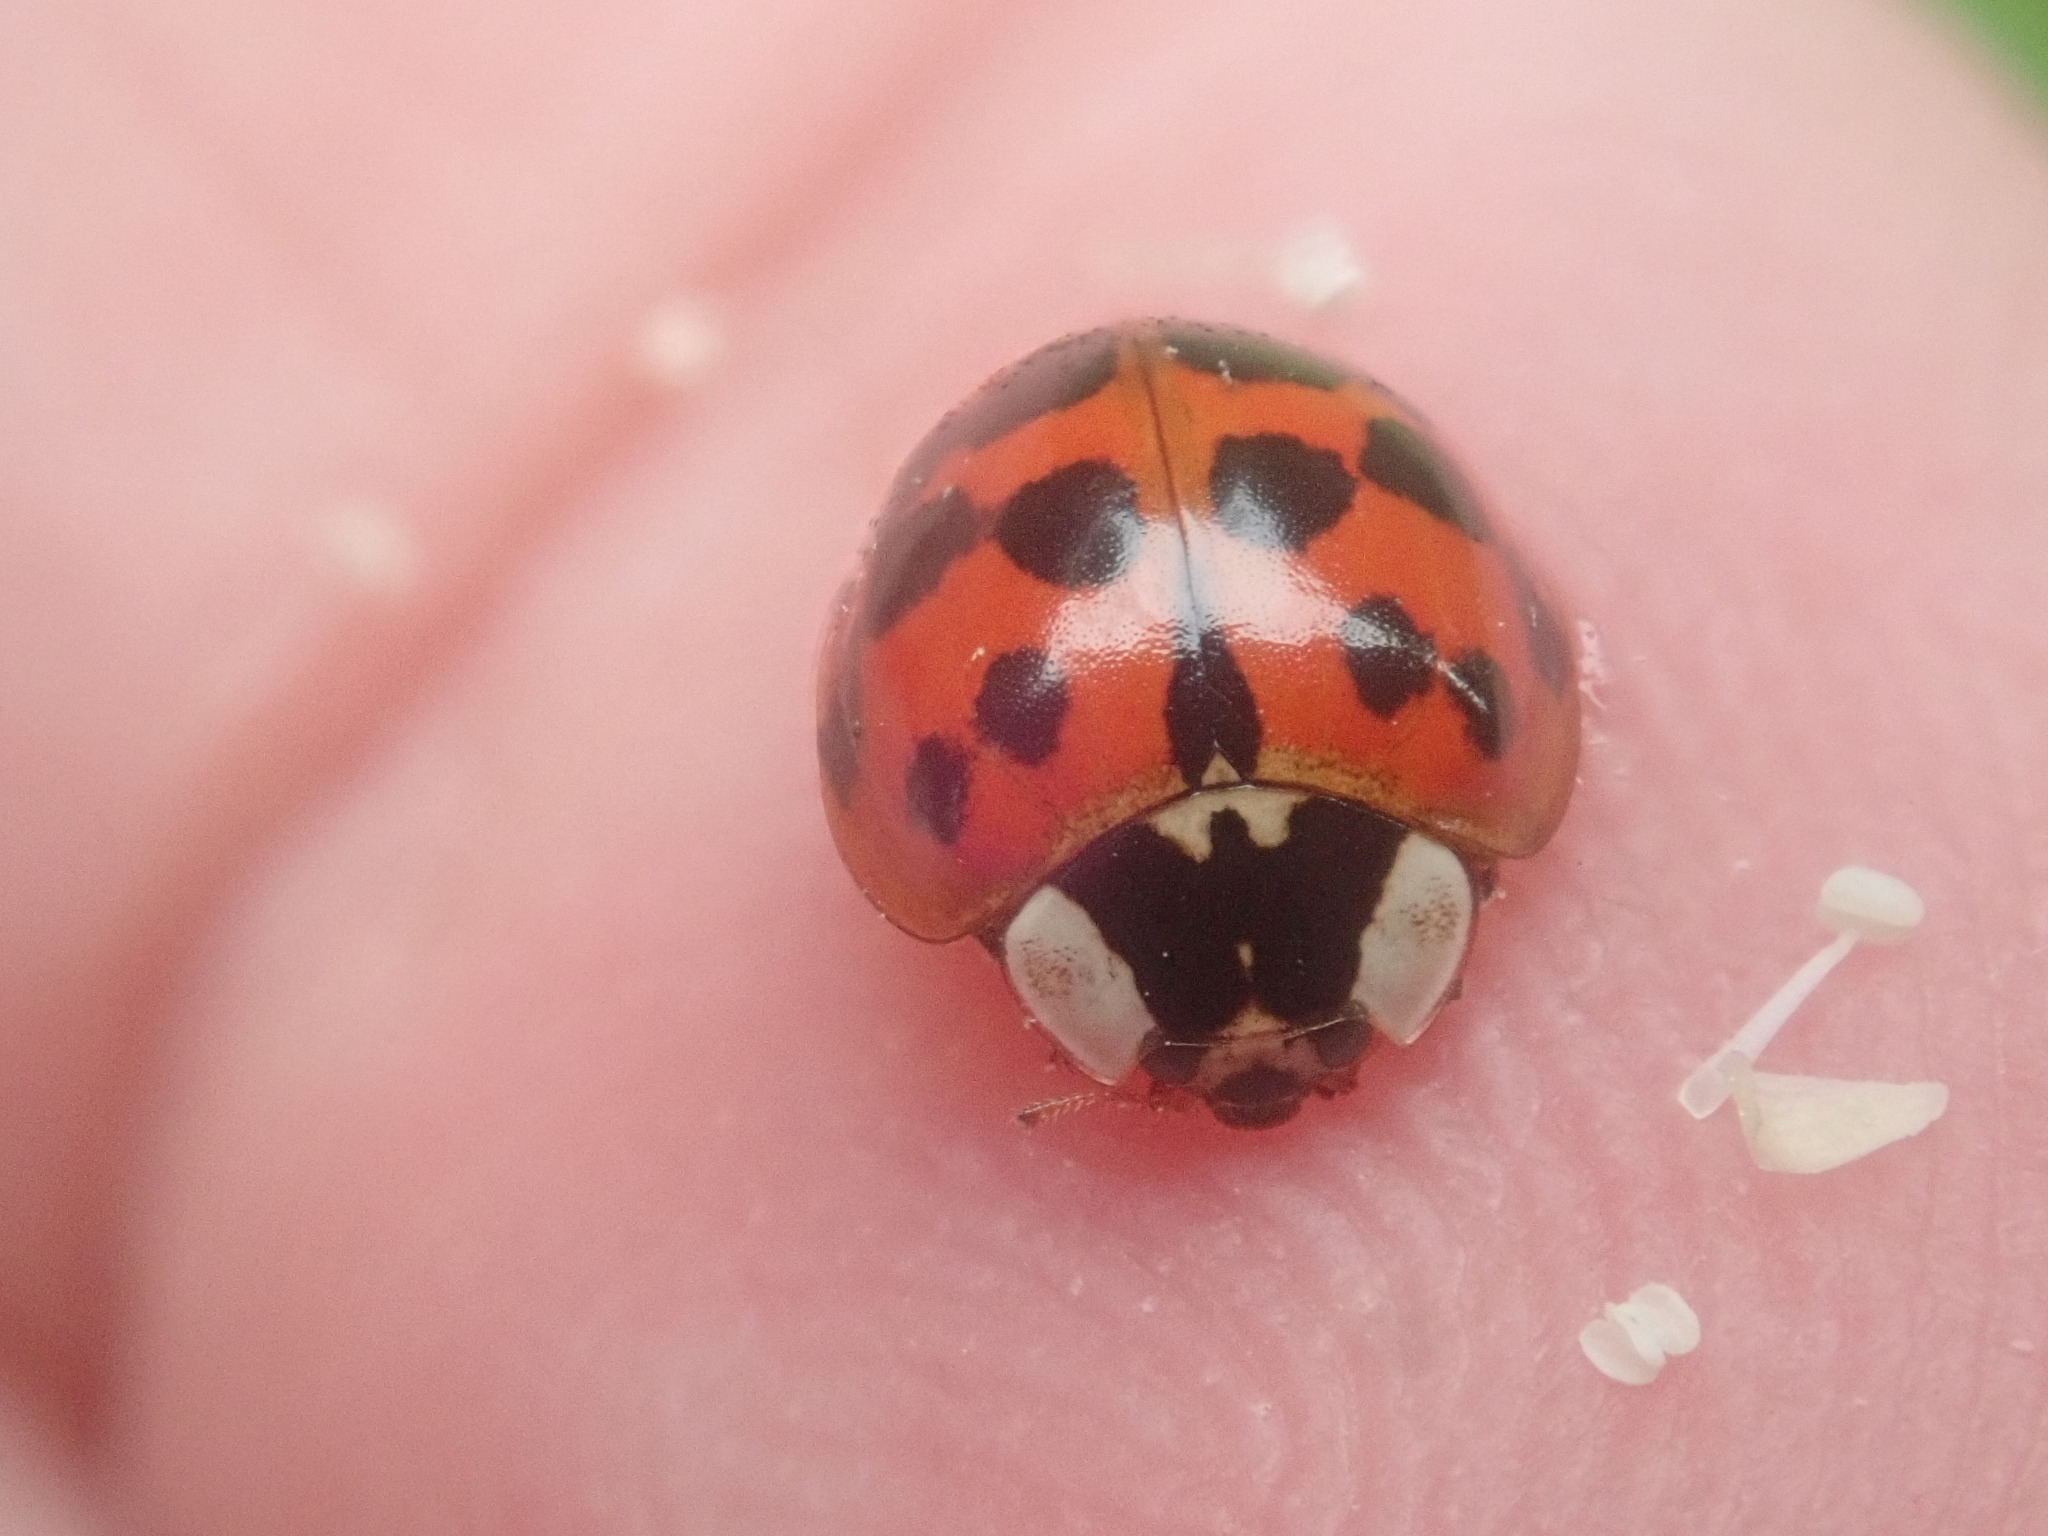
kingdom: Animalia
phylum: Arthropoda
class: Insecta
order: Coleoptera
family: Coccinellidae
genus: Harmonia
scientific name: Harmonia axyridis
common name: Harlequin ladybird
